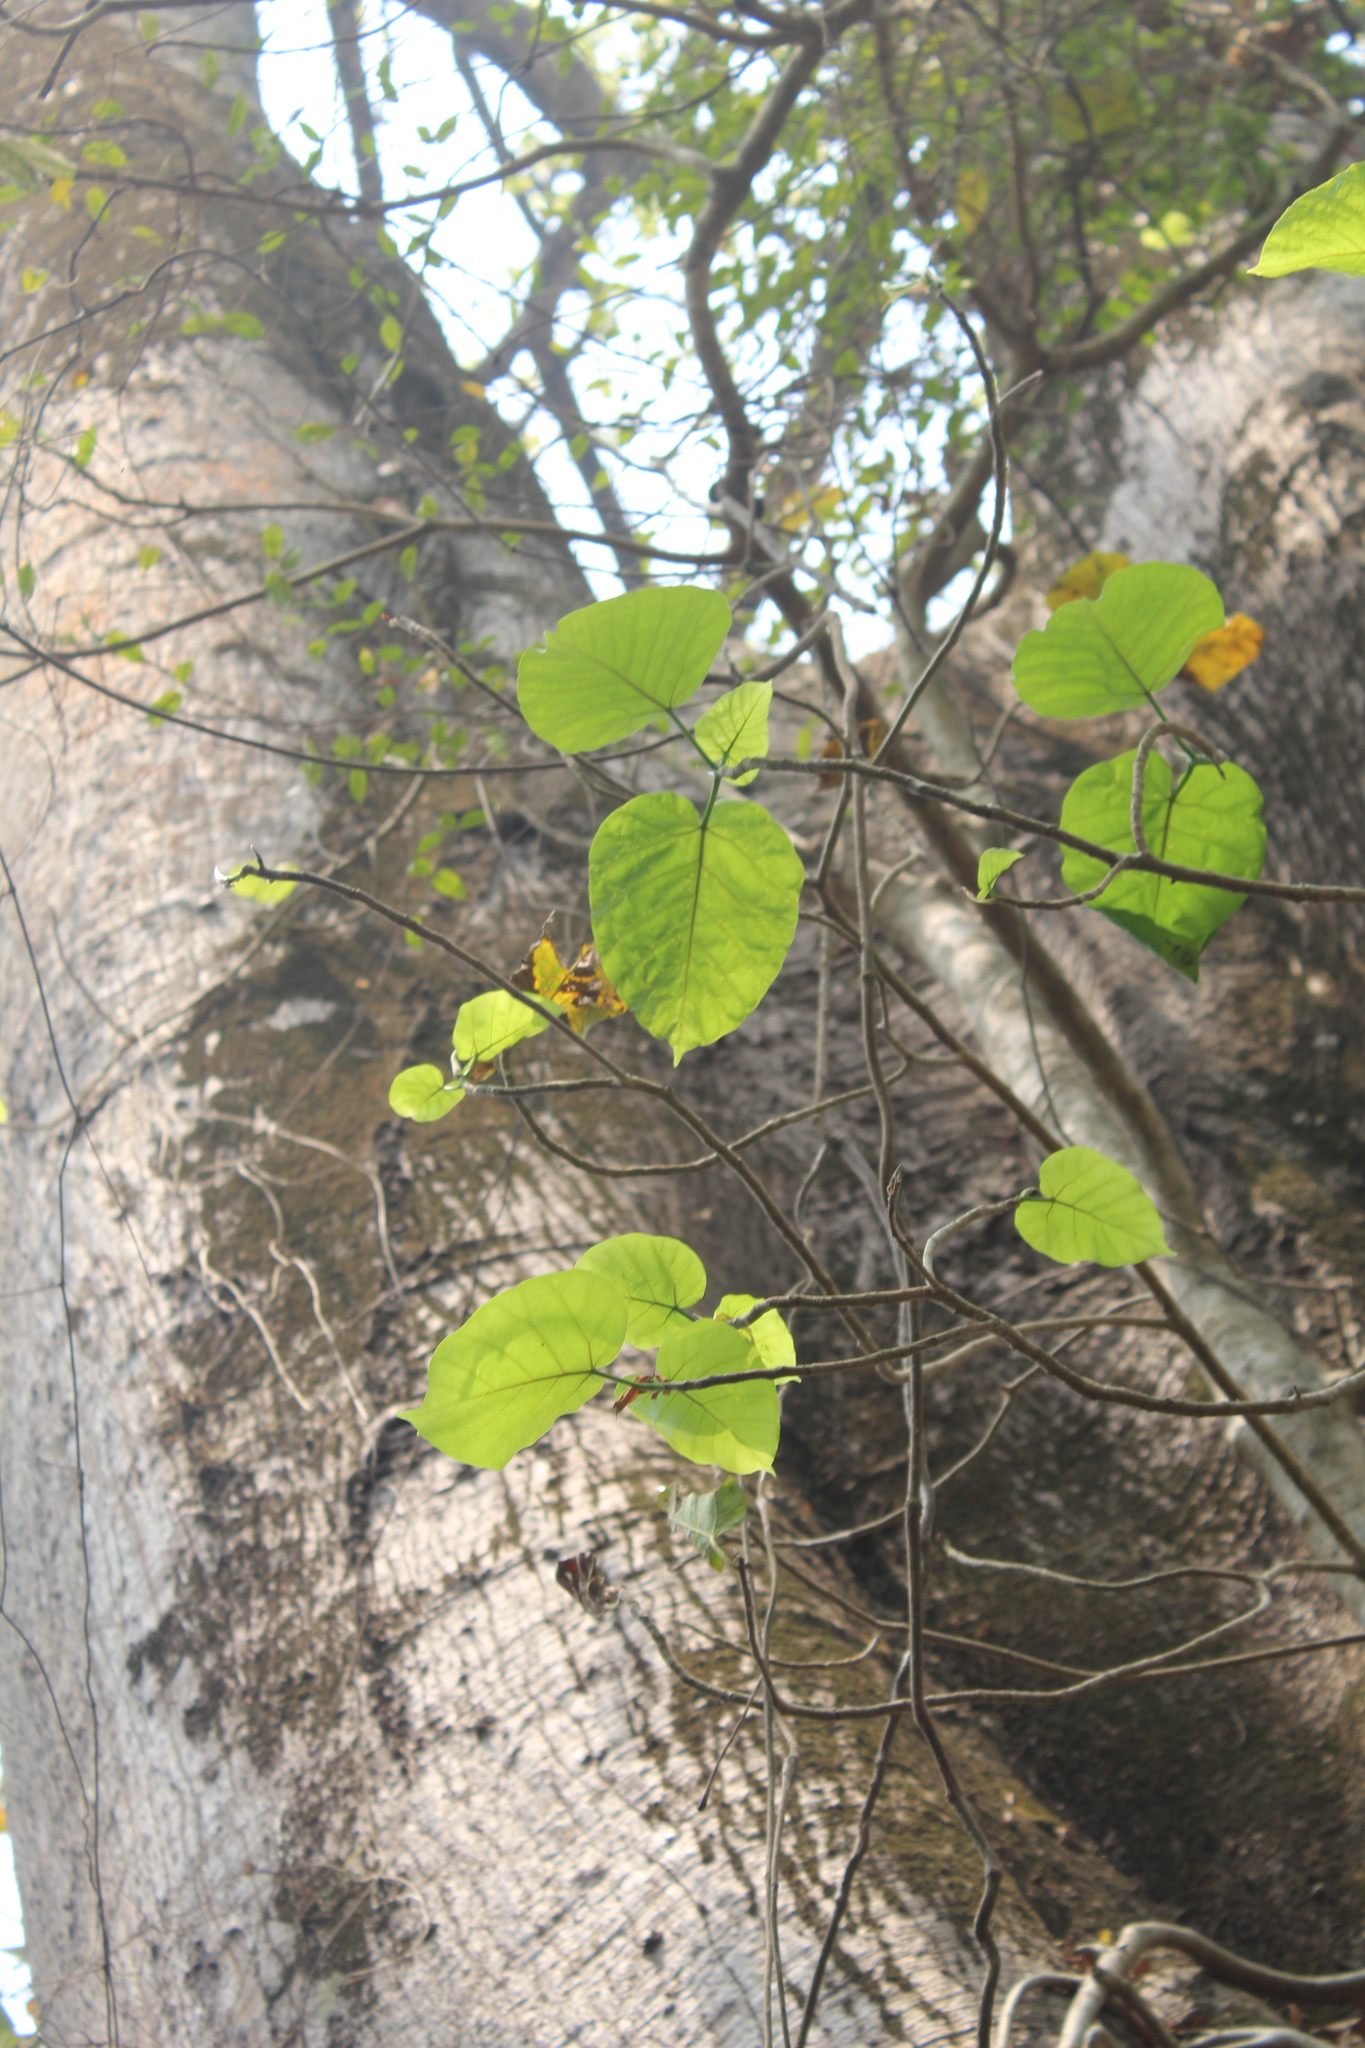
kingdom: Plantae
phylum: Tracheophyta
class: Magnoliopsida
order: Malvales
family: Malvaceae
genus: Ceiba
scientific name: Ceiba pentandra
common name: Kapok
